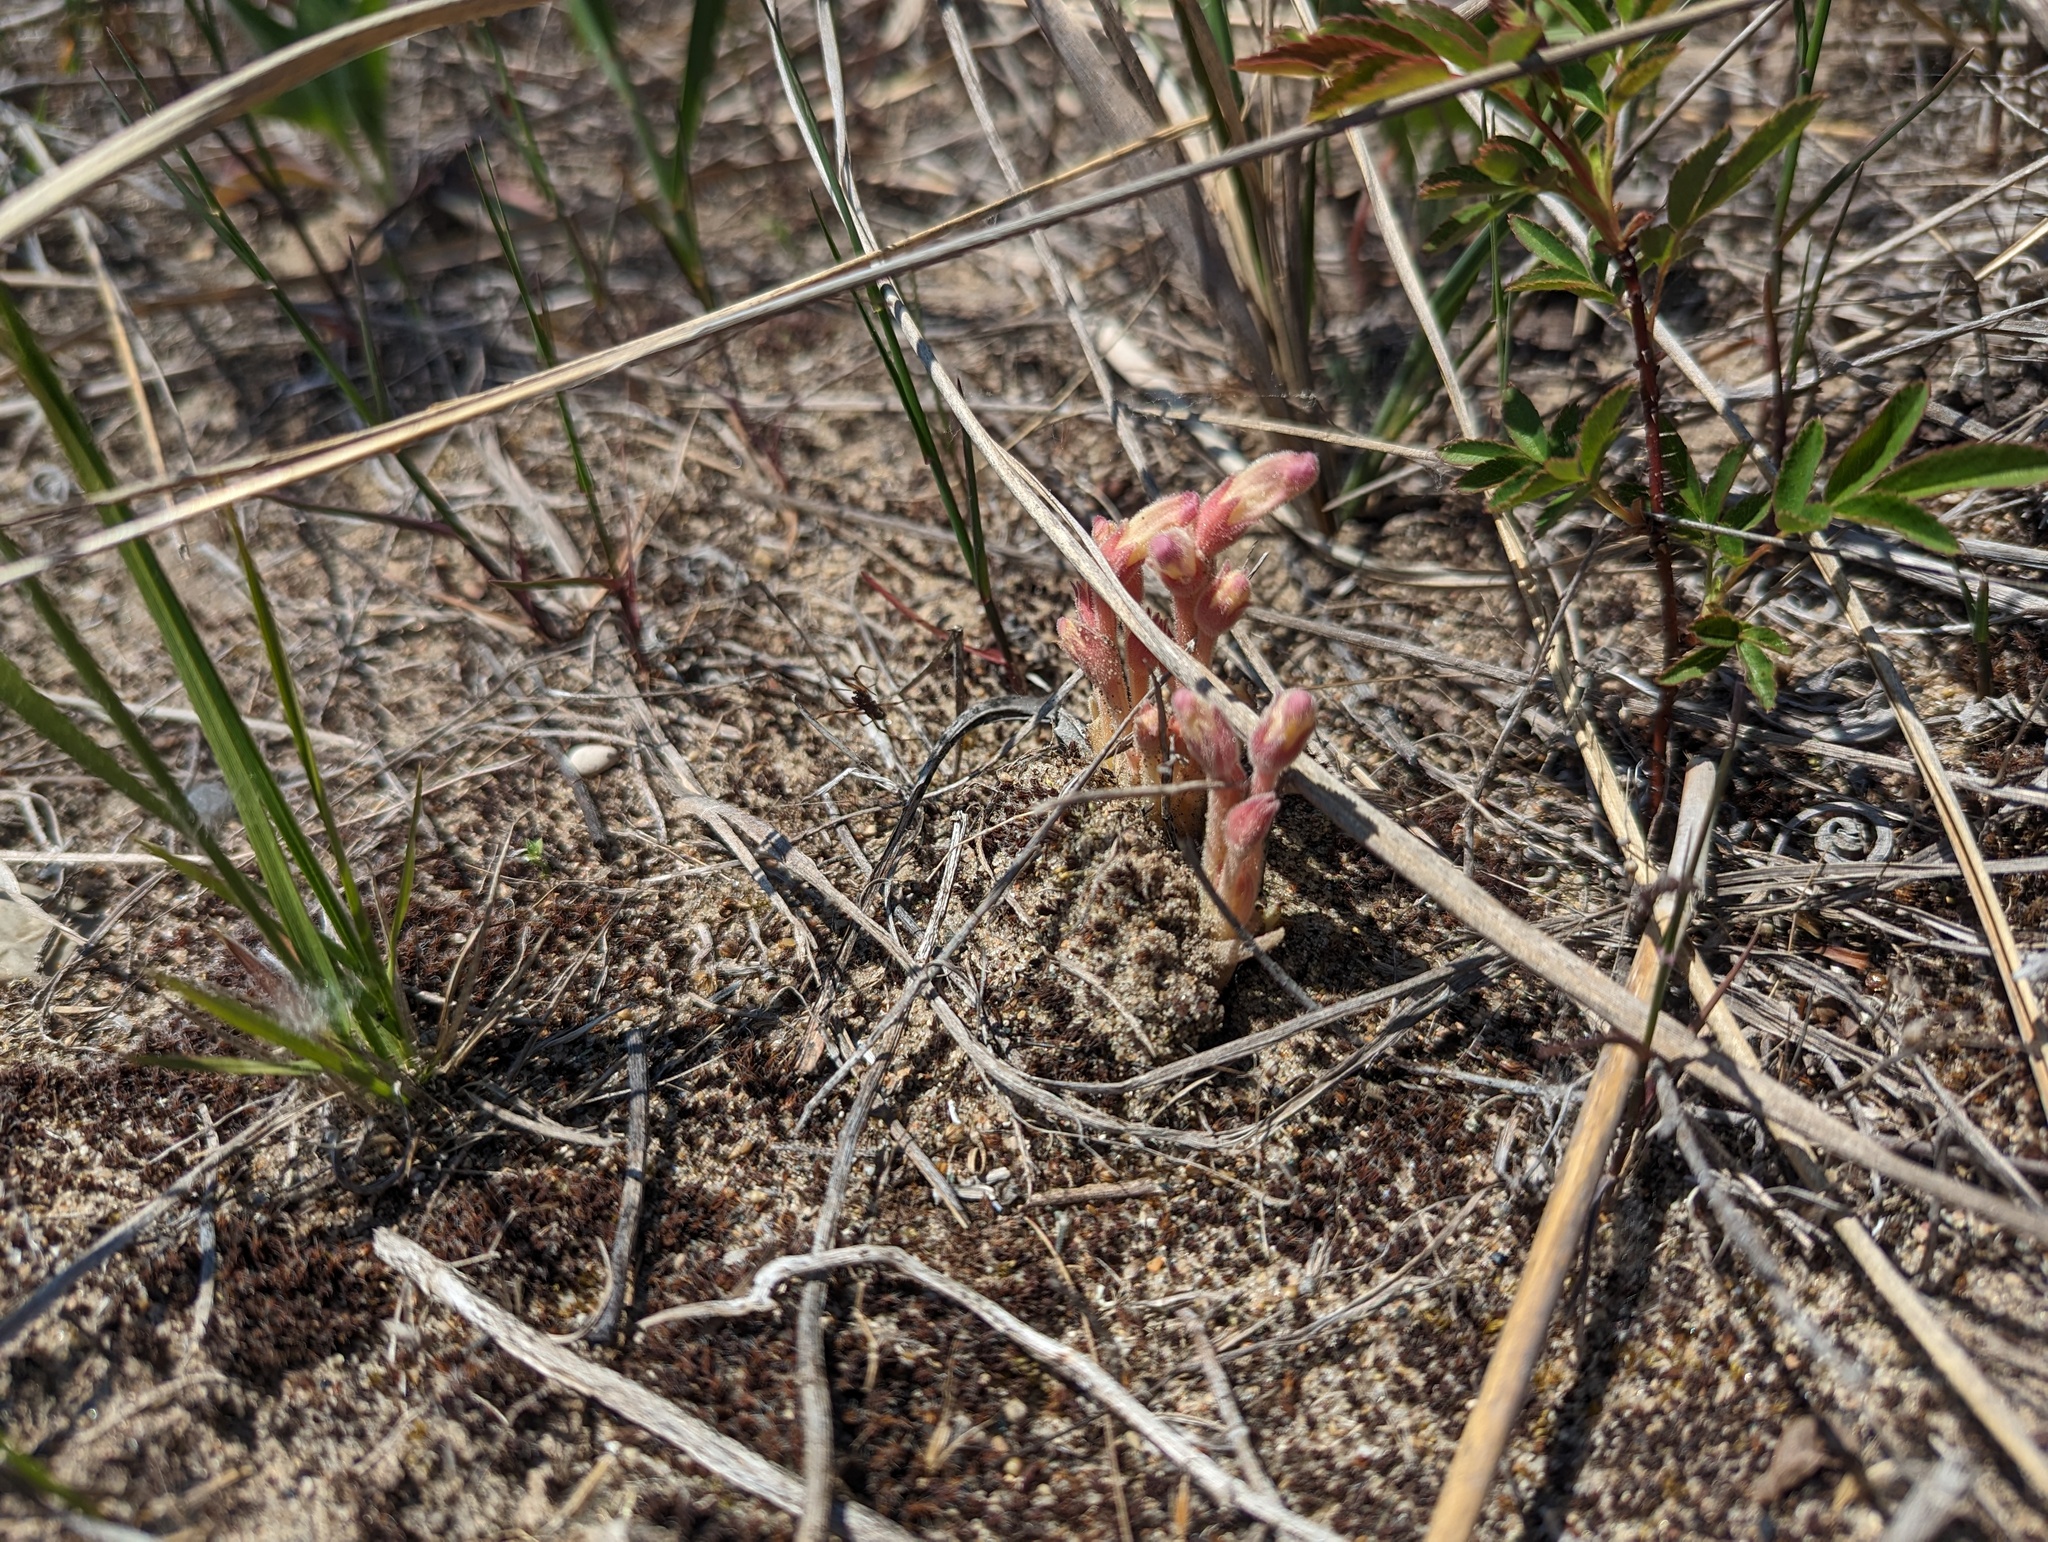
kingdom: Plantae
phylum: Tracheophyta
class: Magnoliopsida
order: Lamiales
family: Orobanchaceae
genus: Aphyllon
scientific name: Aphyllon fasciculatum
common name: Clustered broomrape
